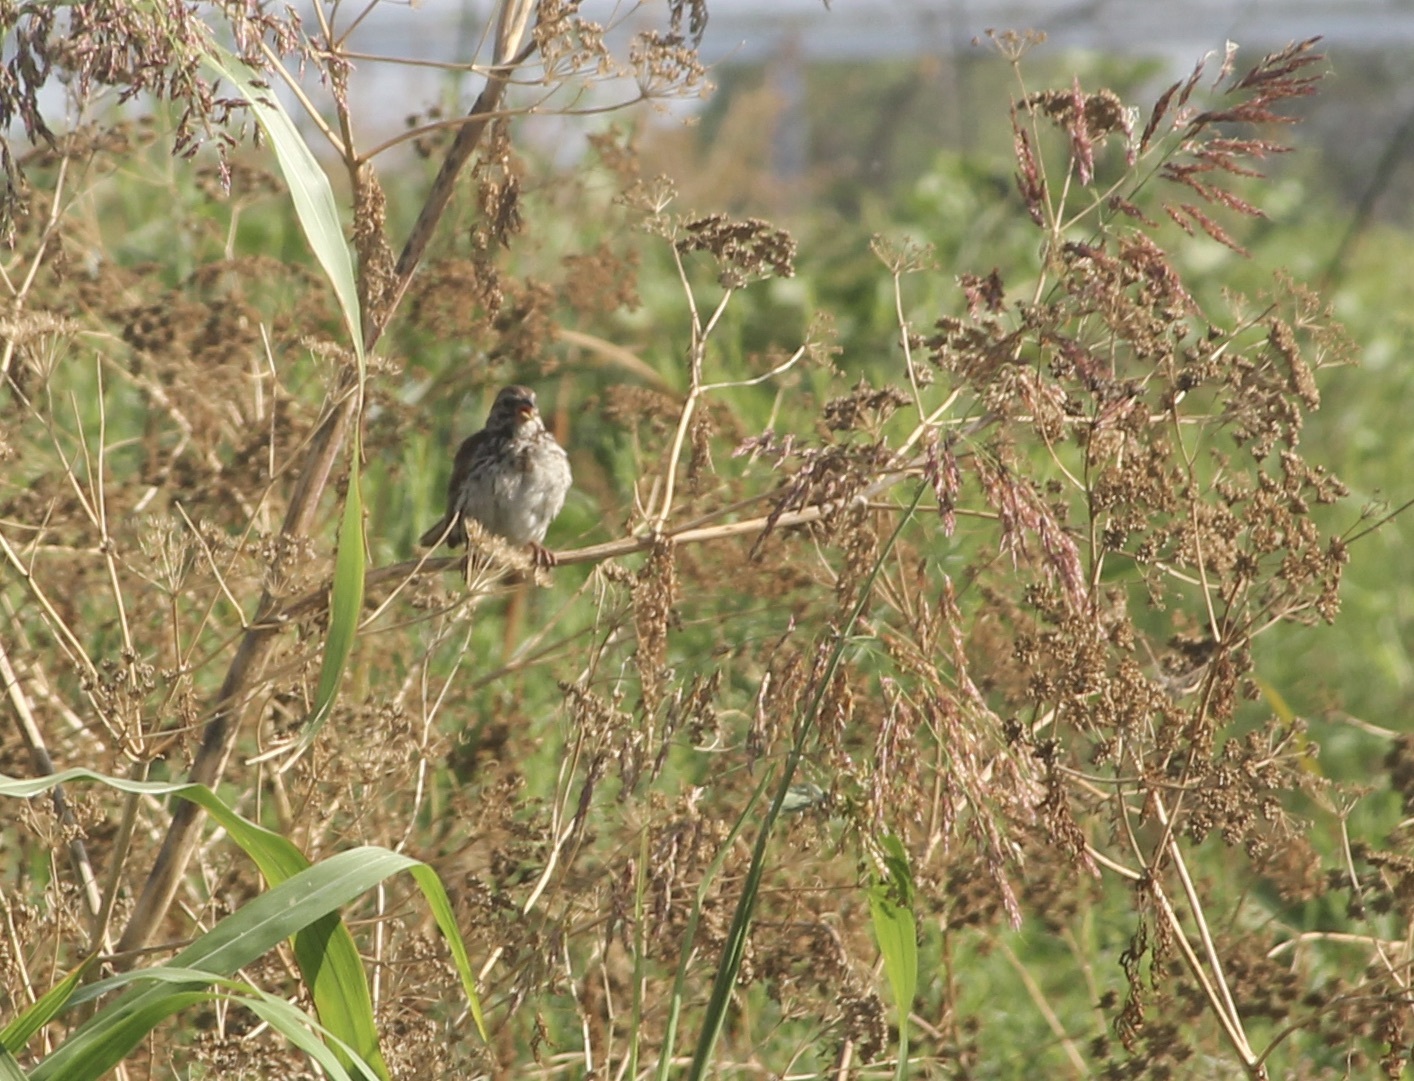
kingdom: Animalia
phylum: Chordata
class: Aves
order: Passeriformes
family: Passerellidae
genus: Melospiza
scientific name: Melospiza melodia
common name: Song sparrow
